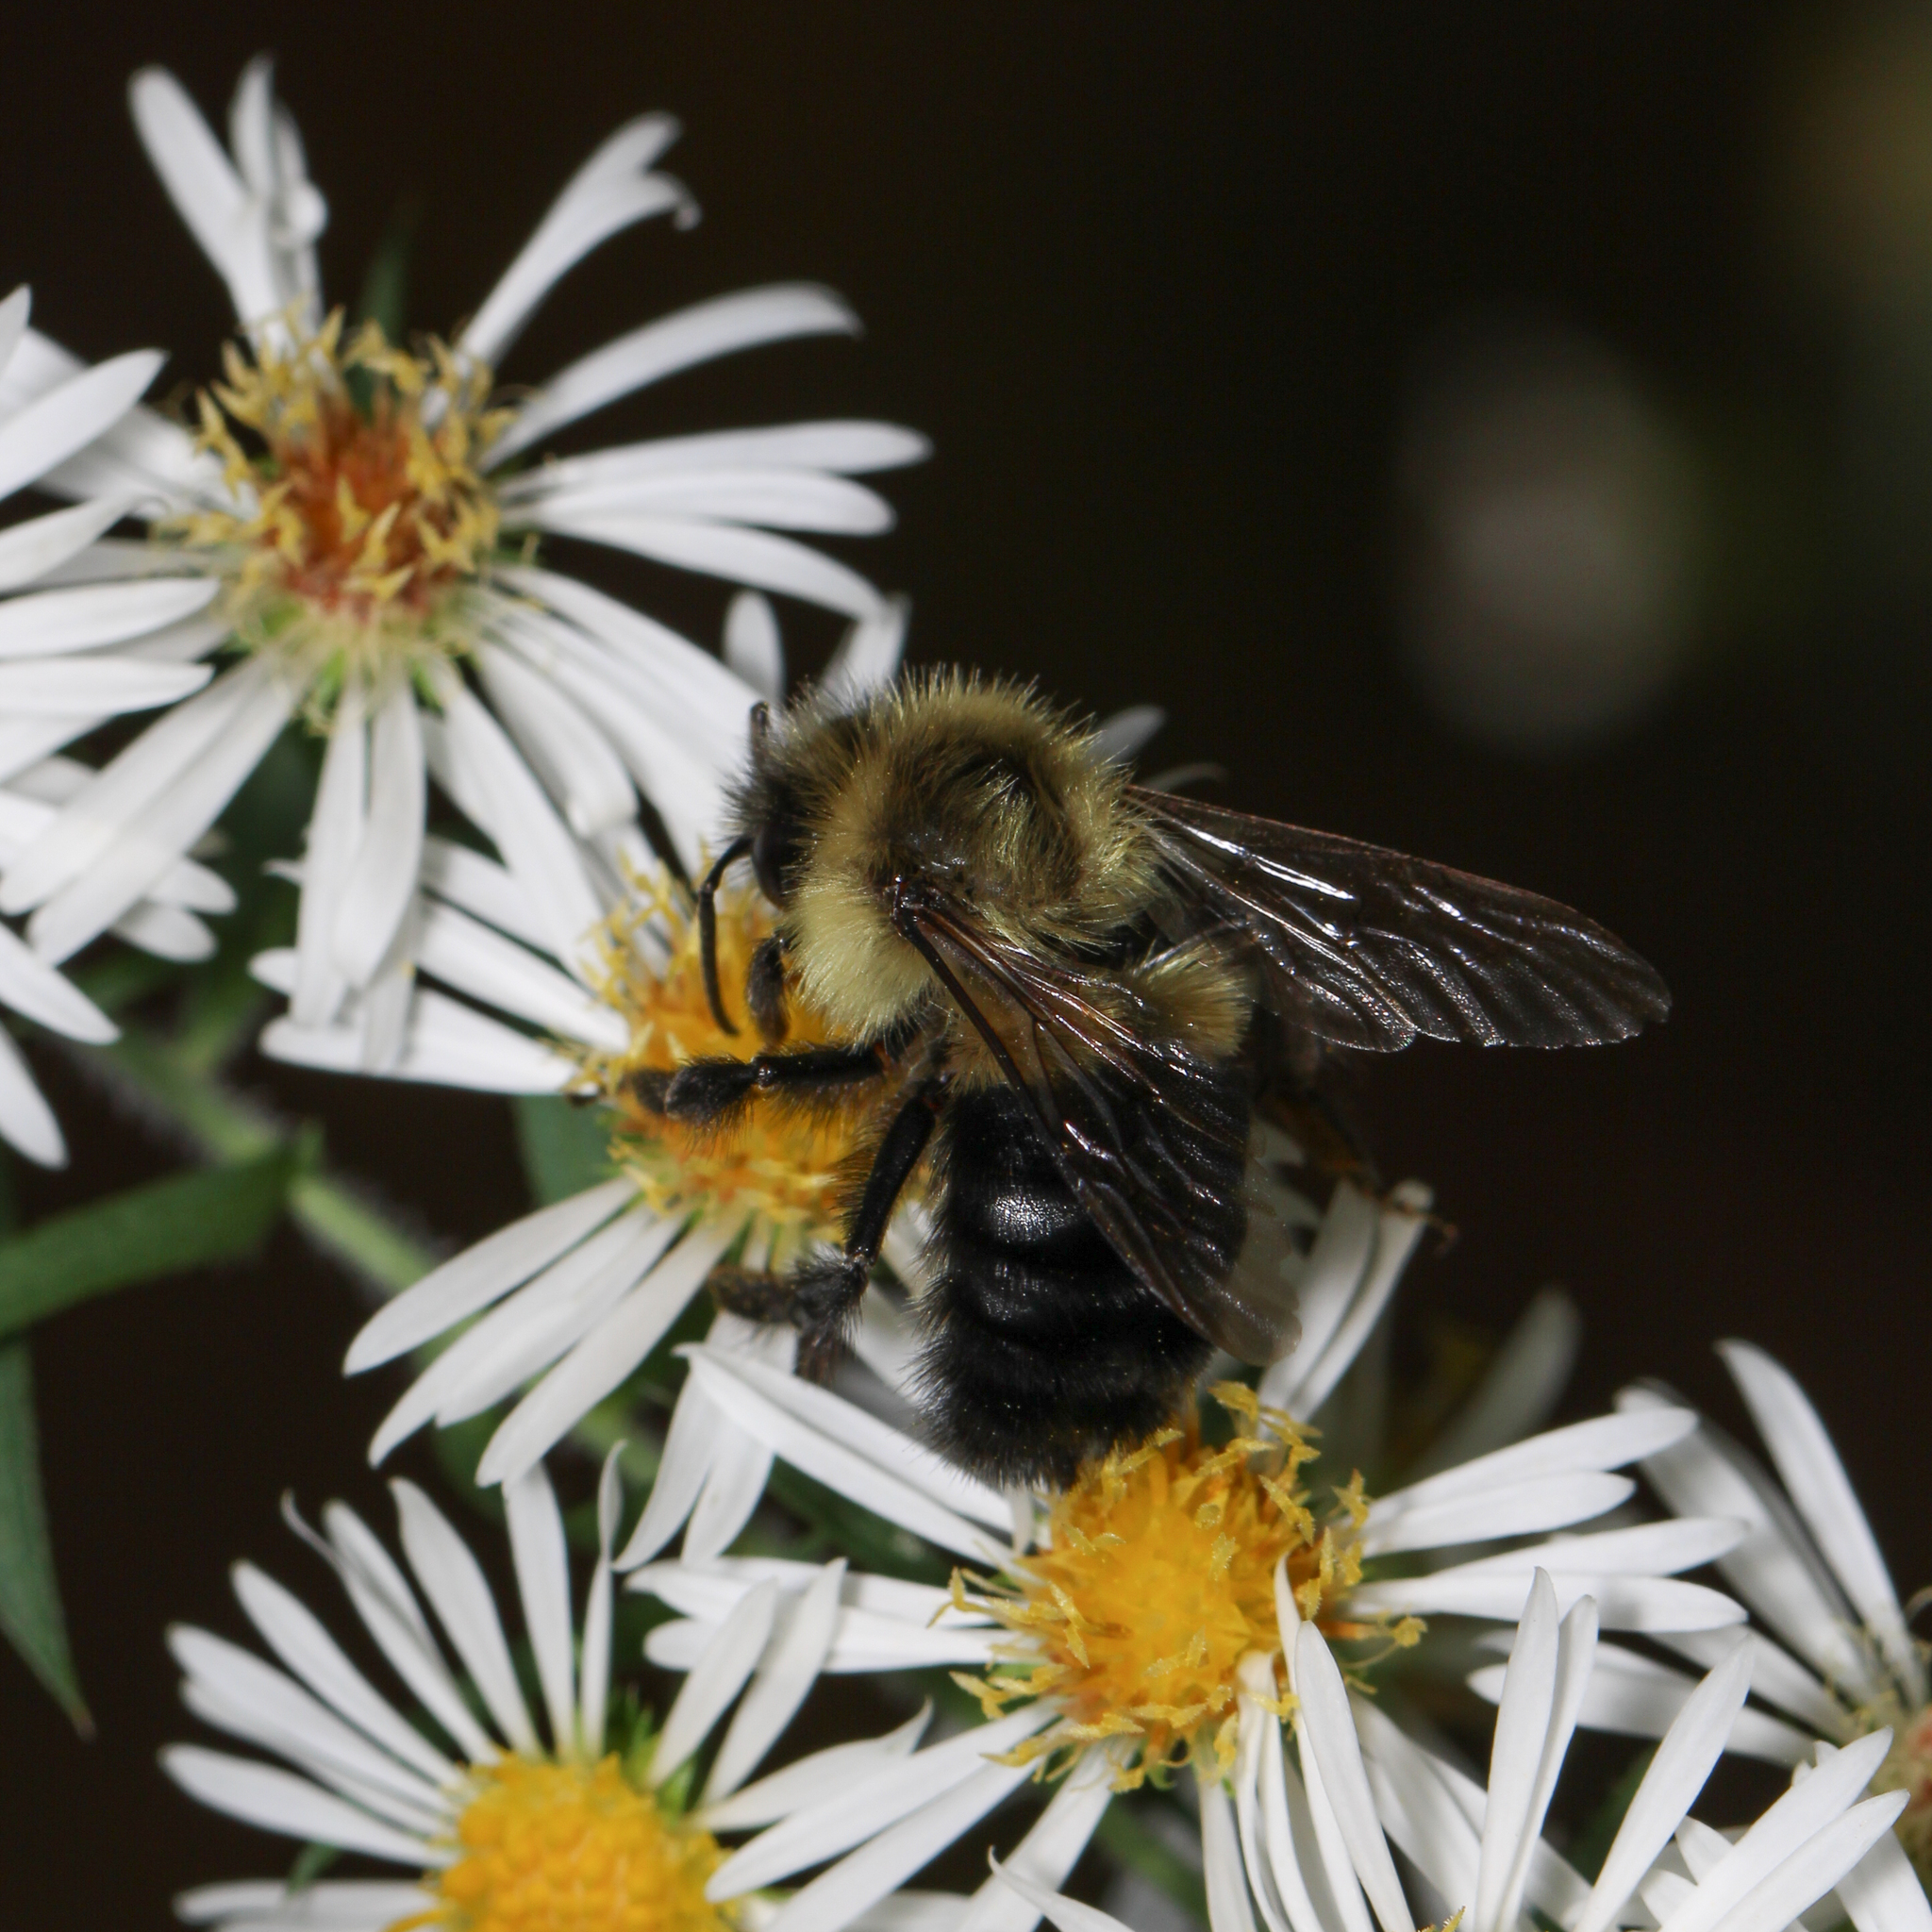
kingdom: Animalia
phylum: Arthropoda
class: Insecta
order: Hymenoptera
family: Apidae
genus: Bombus
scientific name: Bombus impatiens
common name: Common eastern bumble bee
